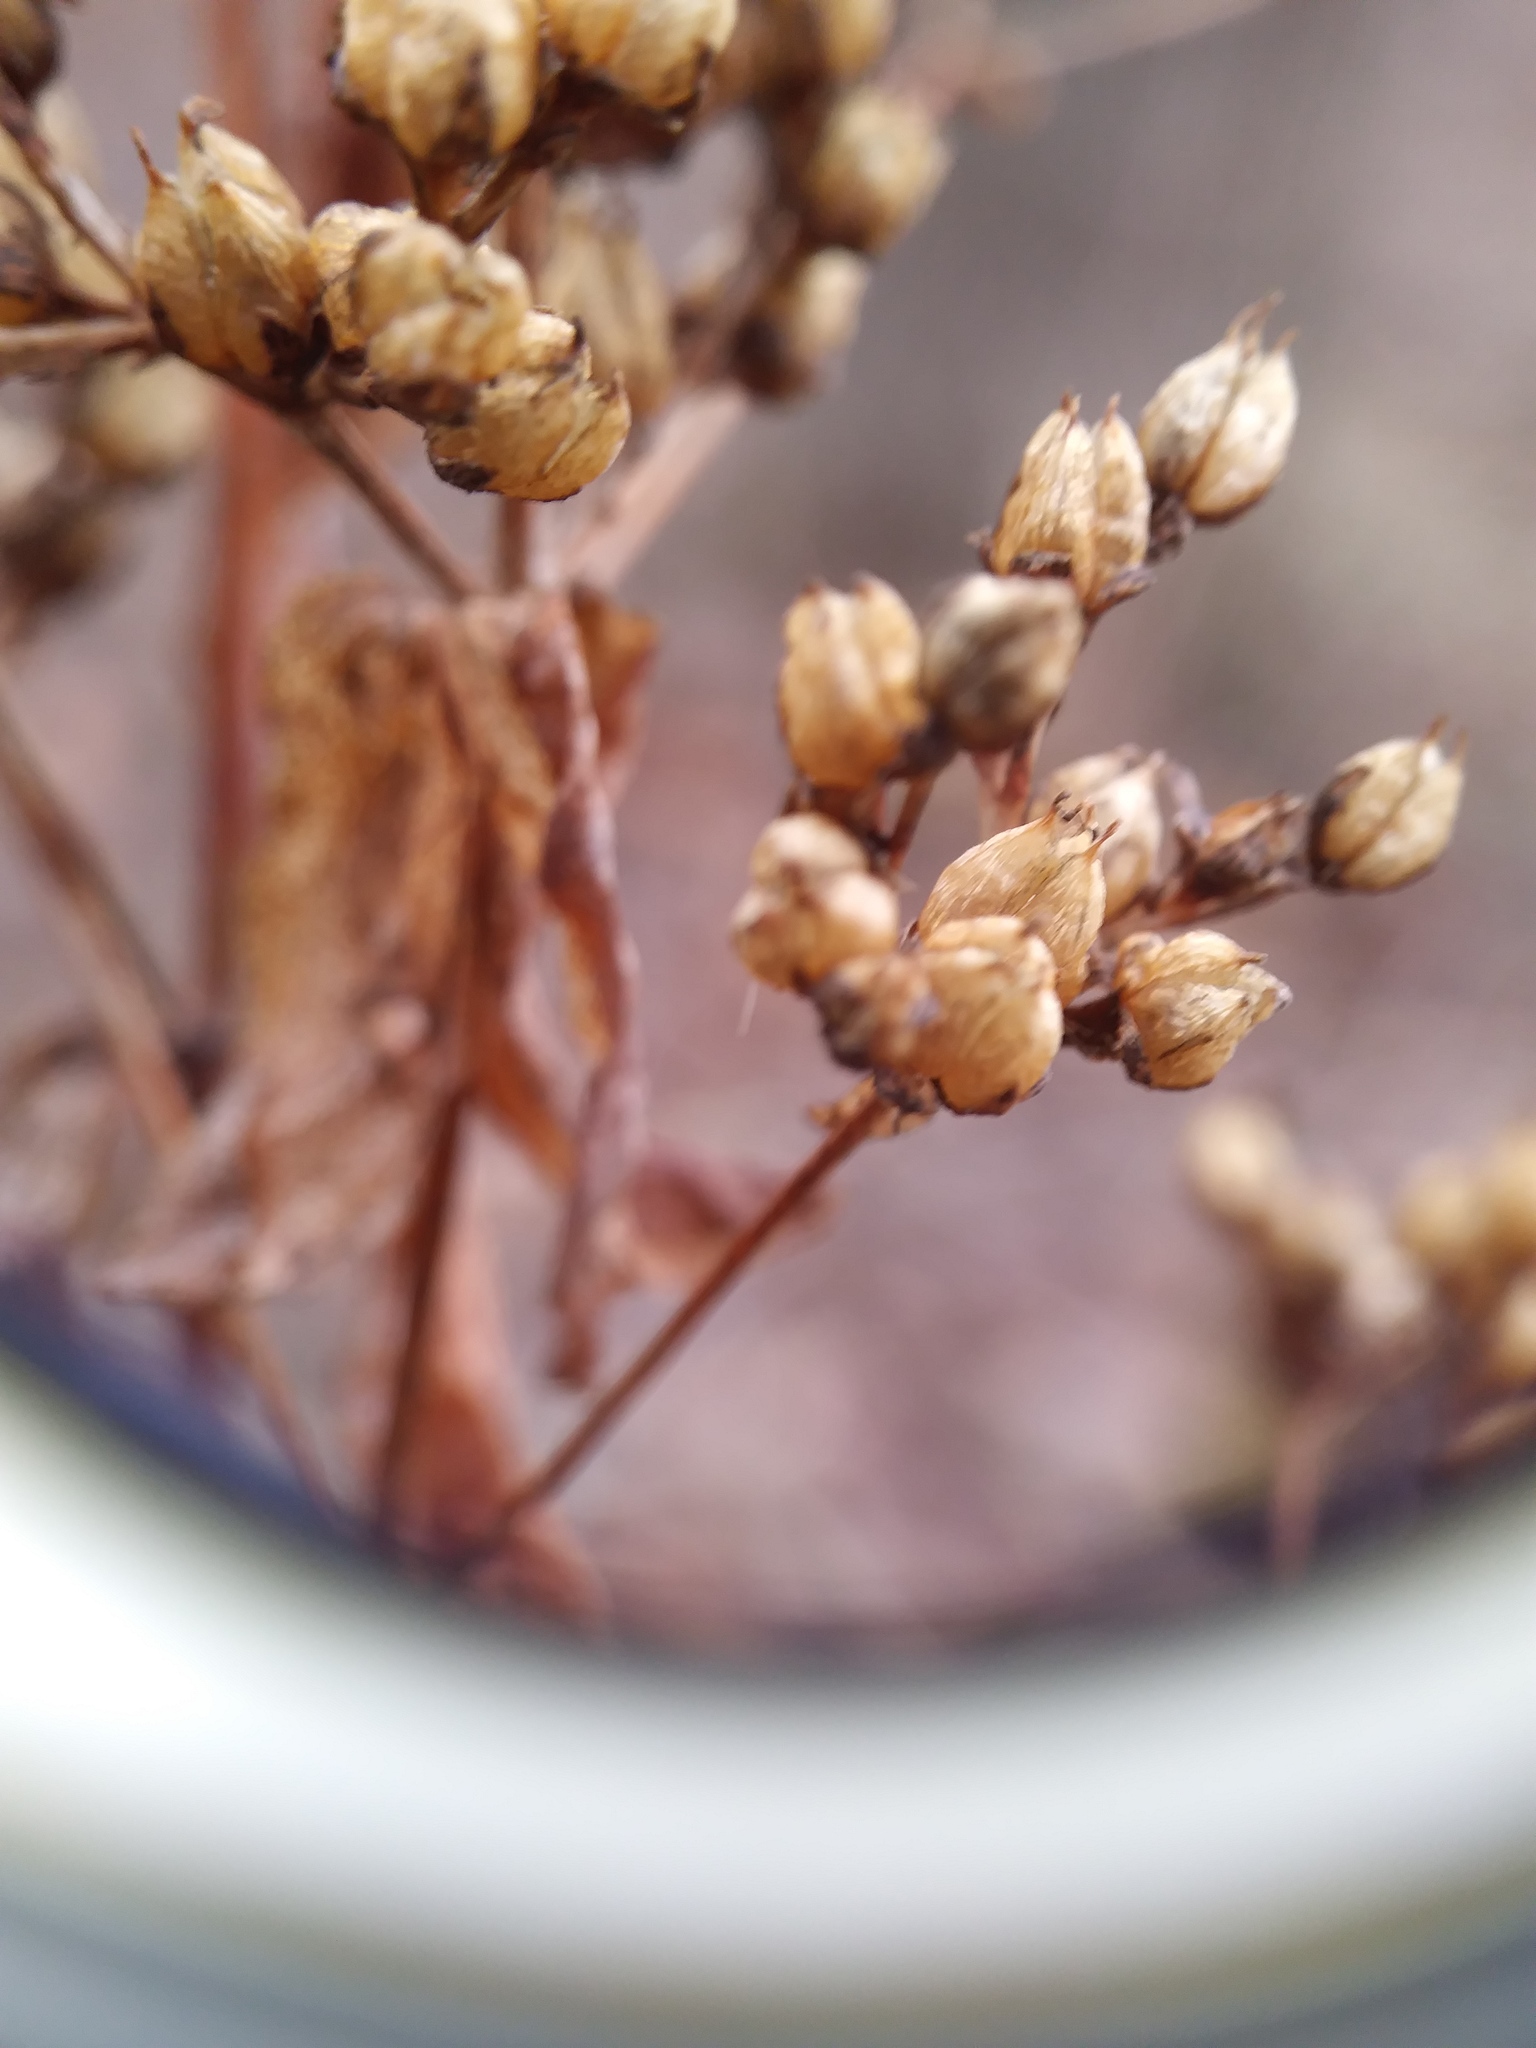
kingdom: Plantae
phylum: Tracheophyta
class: Magnoliopsida
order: Malpighiales
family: Hypericaceae
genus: Hypericum
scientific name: Hypericum punctatum
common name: Spotted st. john's-wort
